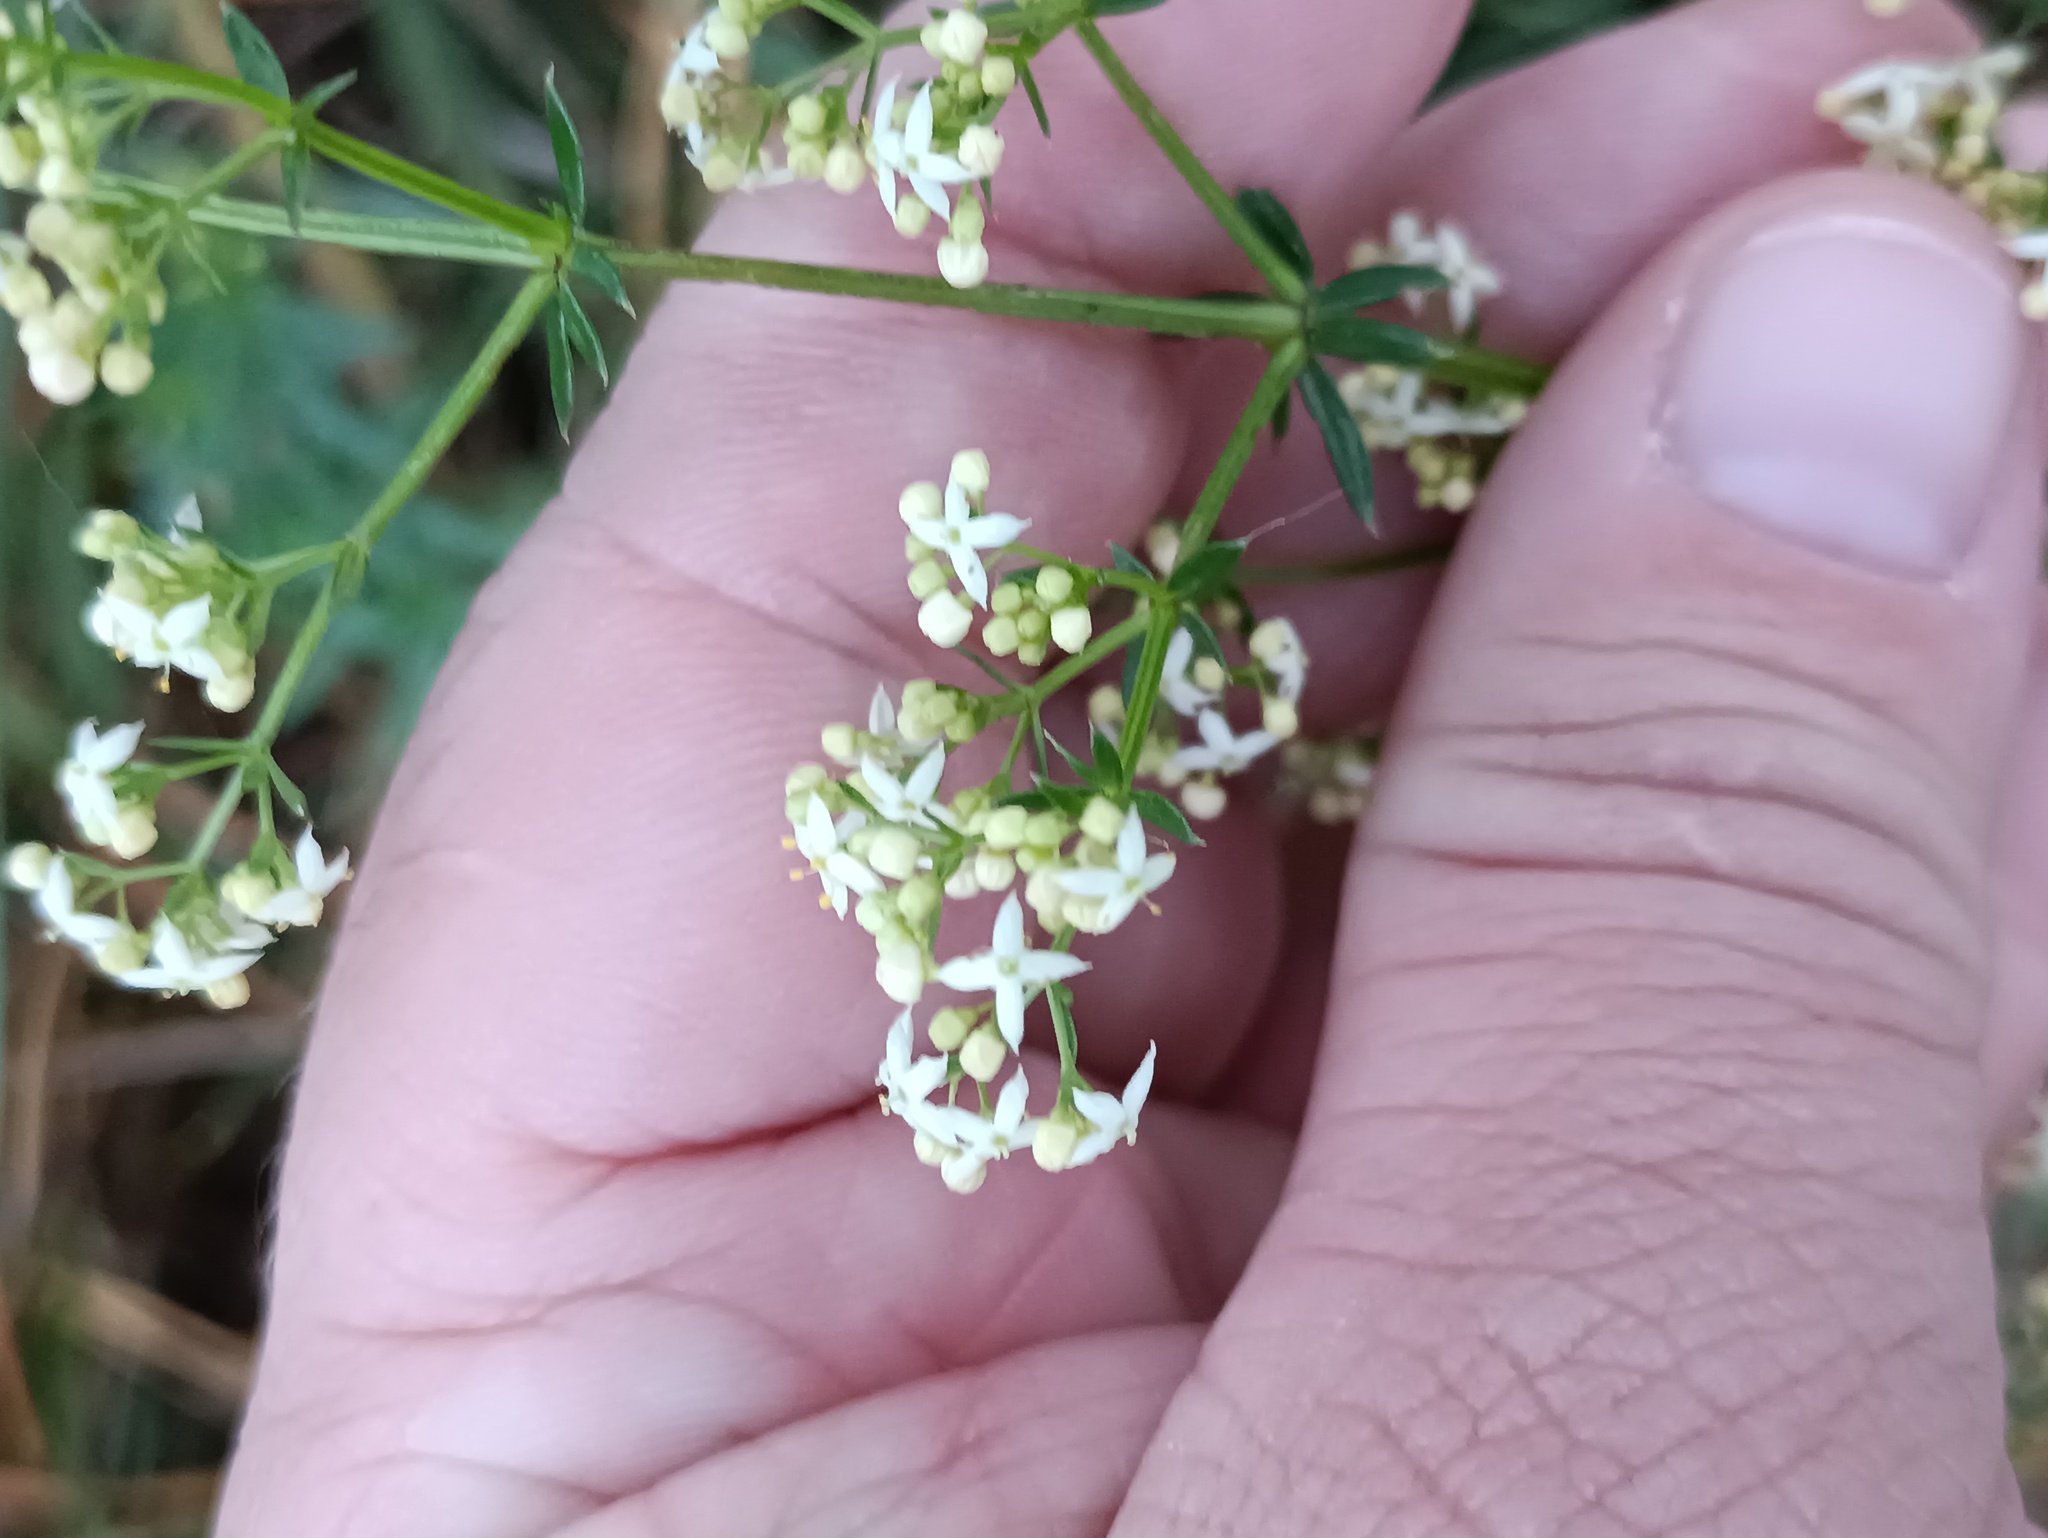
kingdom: Plantae
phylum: Tracheophyta
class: Magnoliopsida
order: Gentianales
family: Rubiaceae
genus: Galium
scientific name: Galium mollugo
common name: Hedge bedstraw
